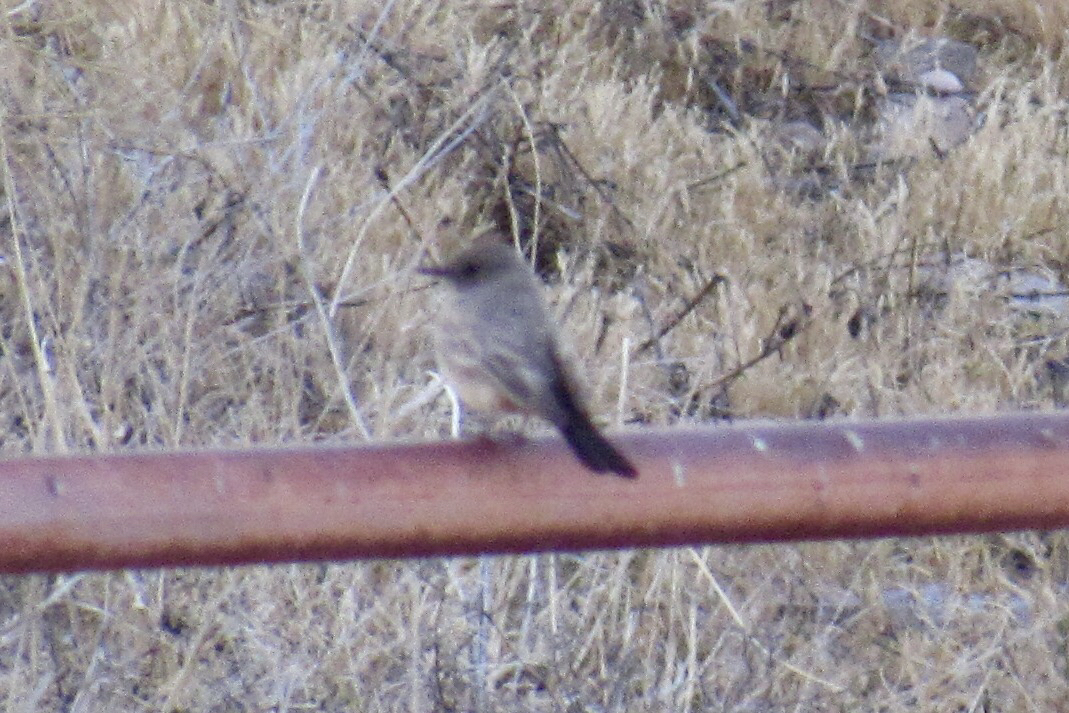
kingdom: Animalia
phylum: Chordata
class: Aves
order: Passeriformes
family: Tyrannidae
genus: Sayornis
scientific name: Sayornis saya
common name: Say's phoebe
